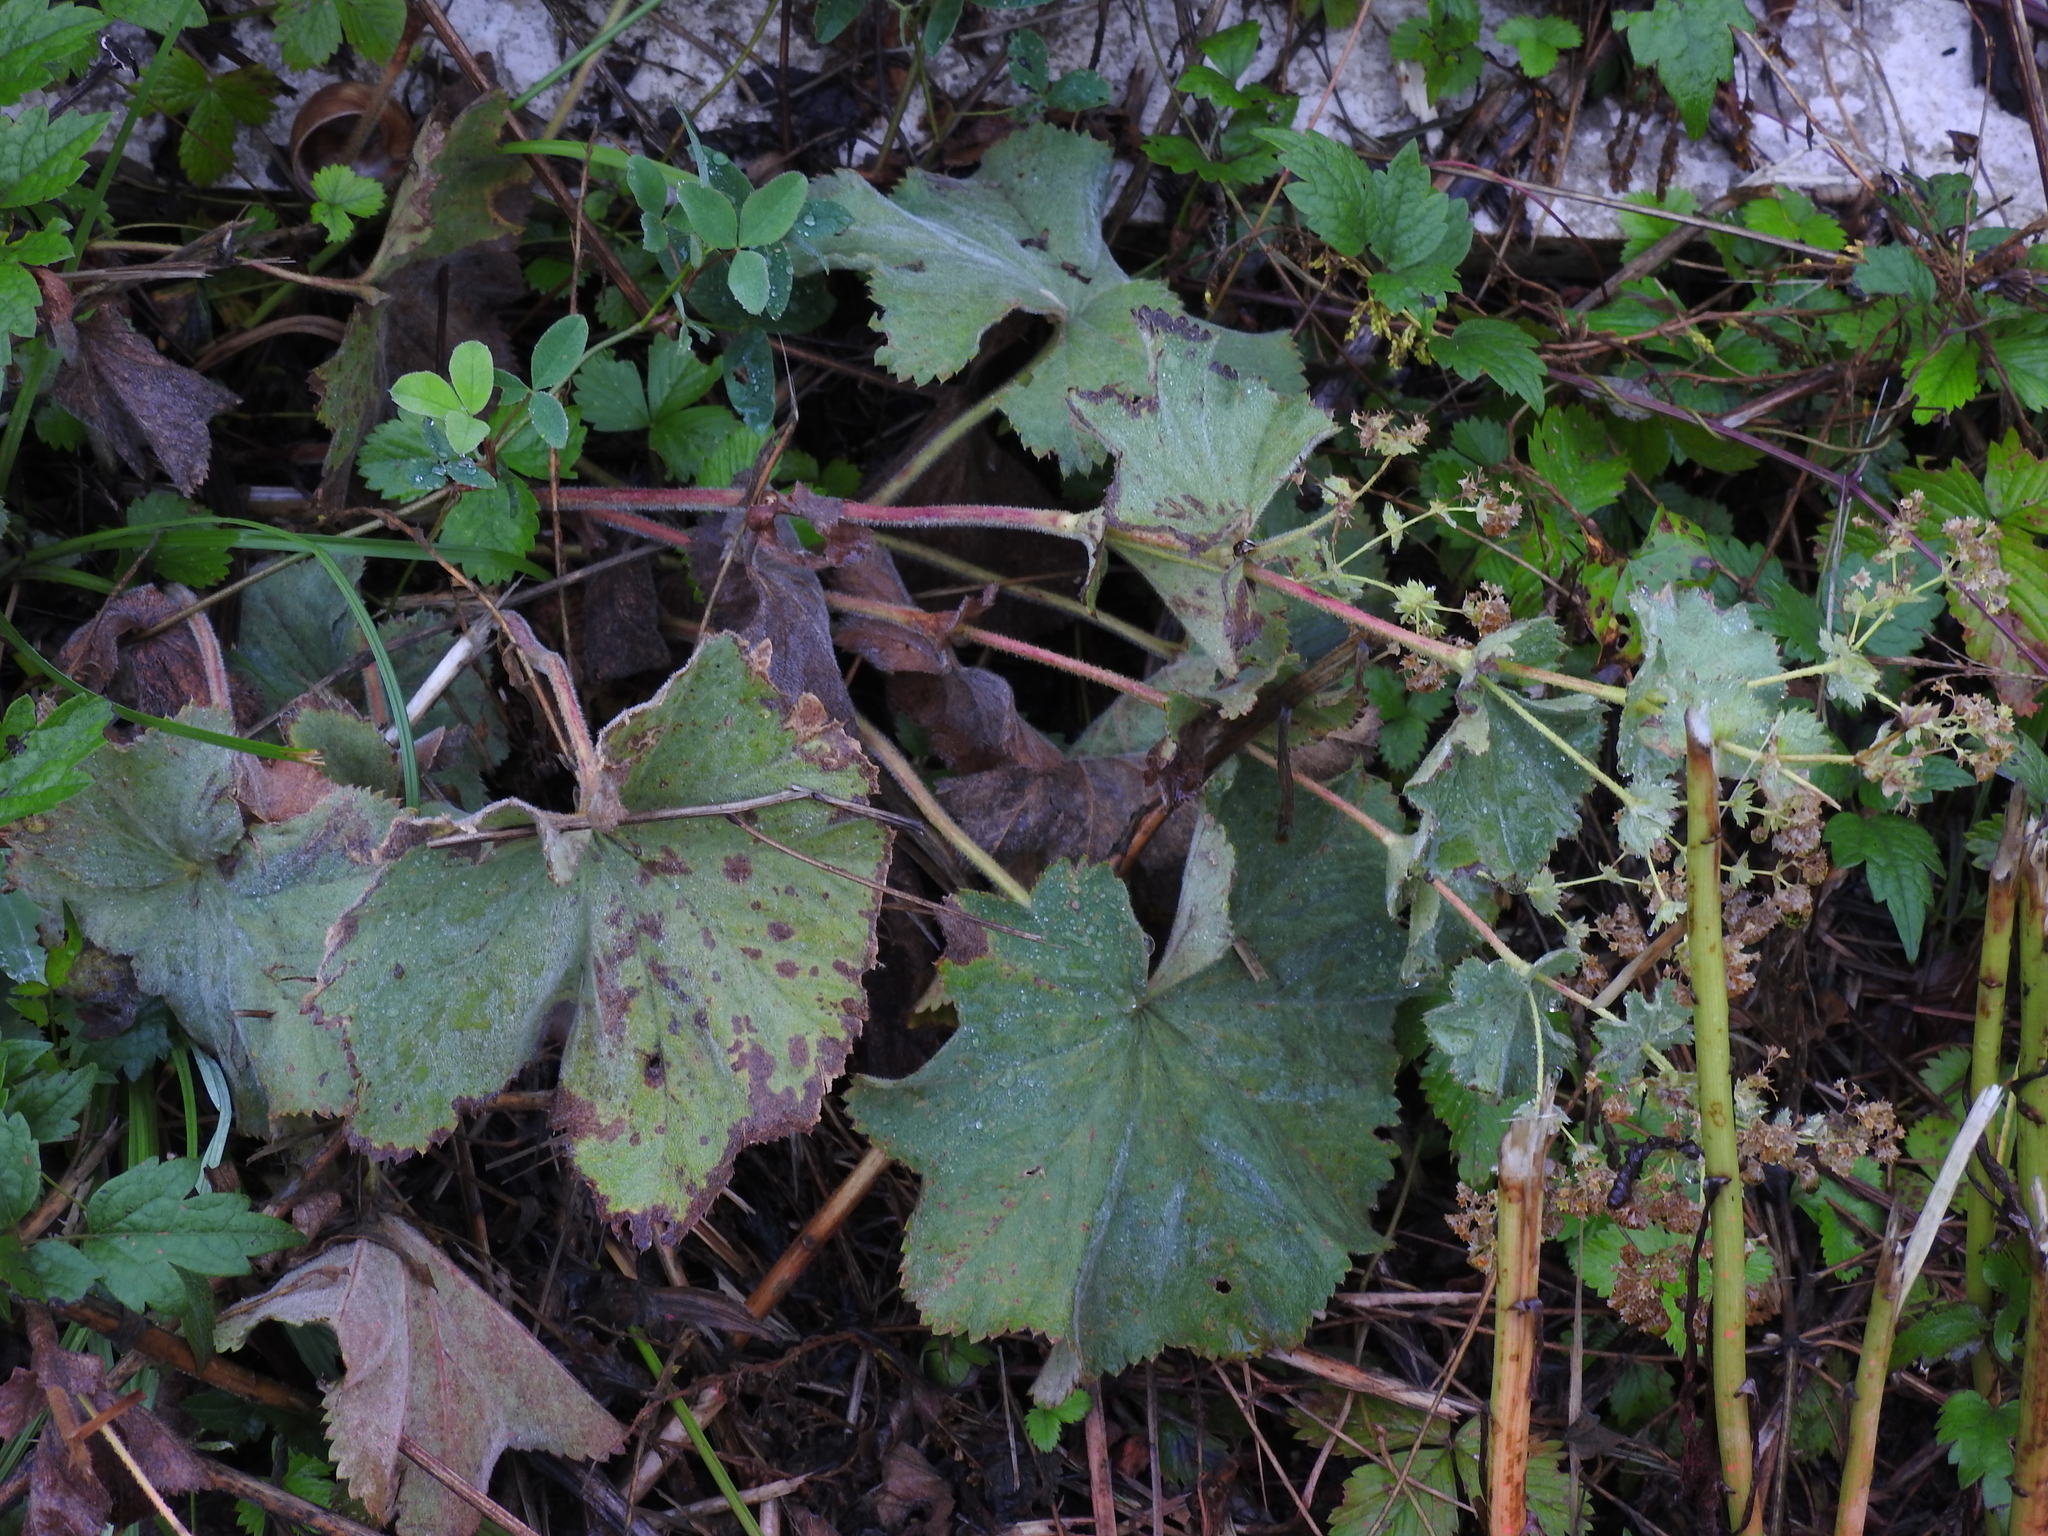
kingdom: Plantae
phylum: Tracheophyta
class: Magnoliopsida
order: Rosales
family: Rosaceae
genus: Alchemilla
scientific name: Alchemilla mollis
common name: Lady's-mantle
